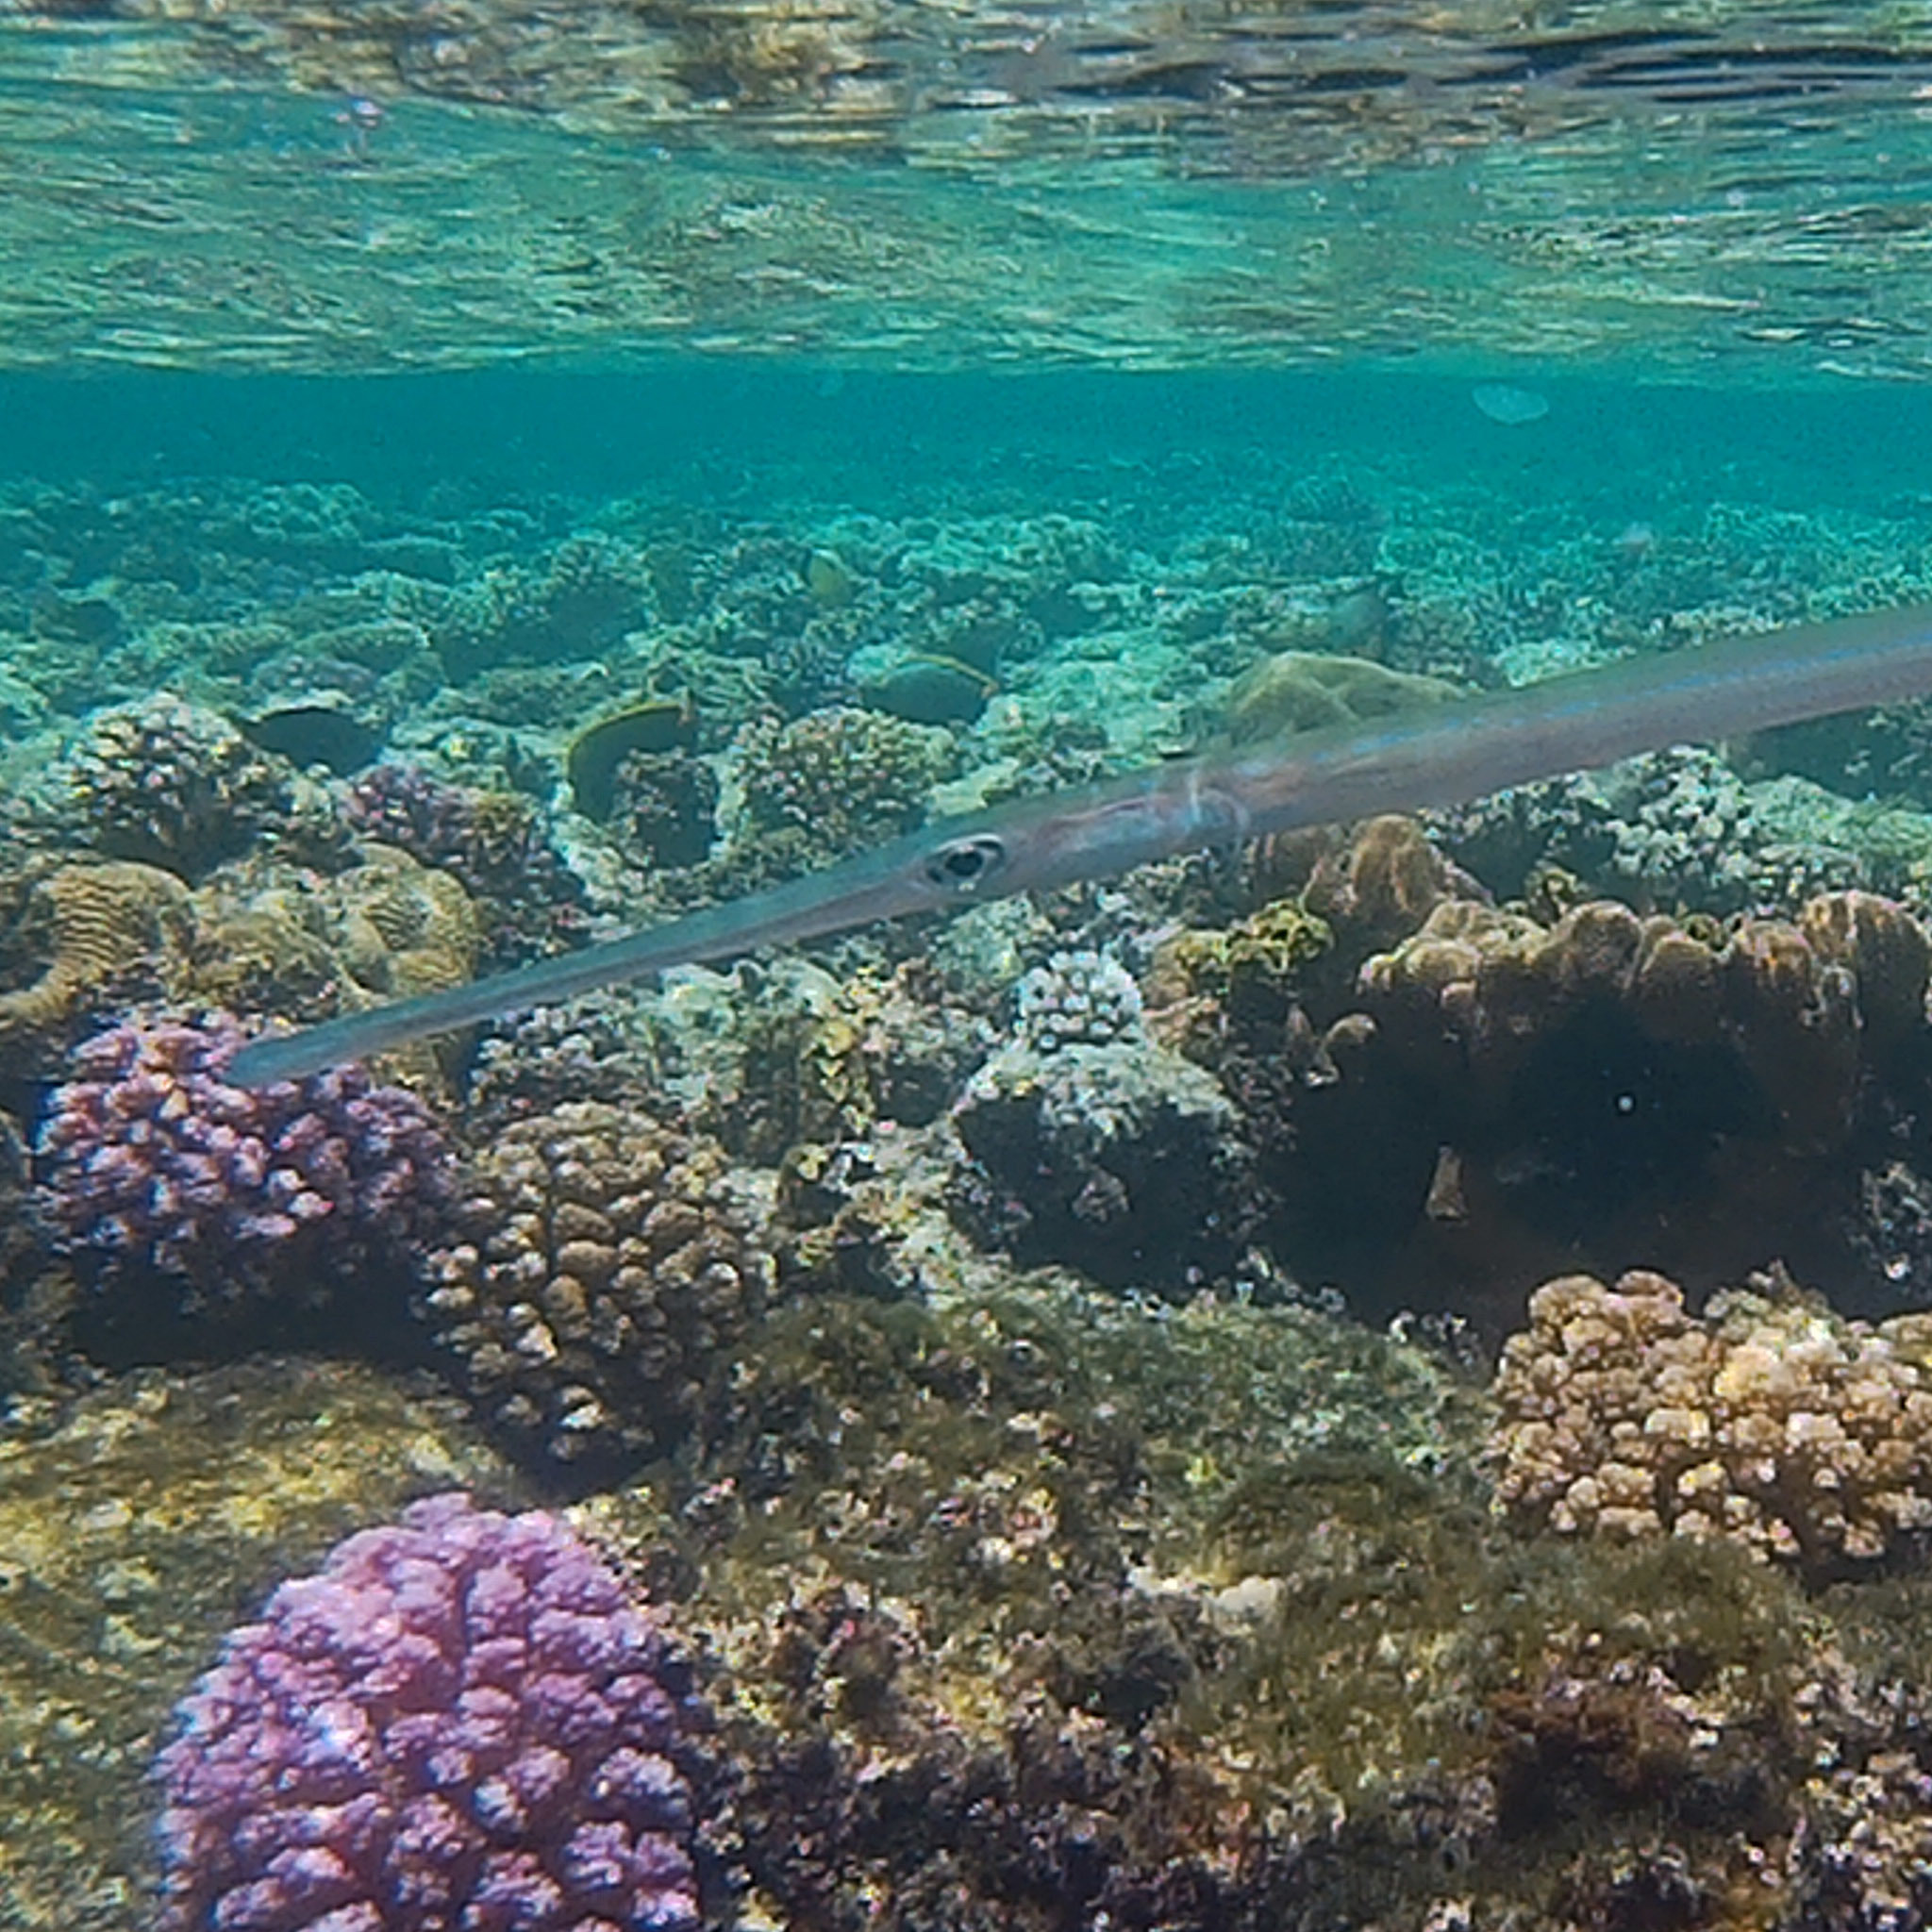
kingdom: Animalia
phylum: Chordata
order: Syngnathiformes
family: Fistulariidae
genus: Fistularia
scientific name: Fistularia commersonii
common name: Bluespotted cornetfish
